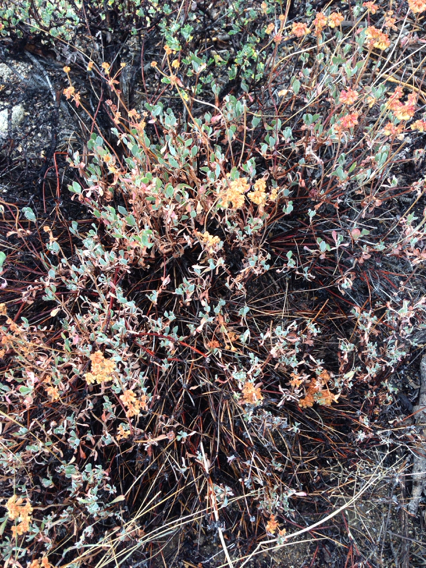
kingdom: Plantae
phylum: Tracheophyta
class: Magnoliopsida
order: Caryophyllales
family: Polygonaceae
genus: Eriogonum
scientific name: Eriogonum umbellatum
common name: Sulfur-buckwheat
